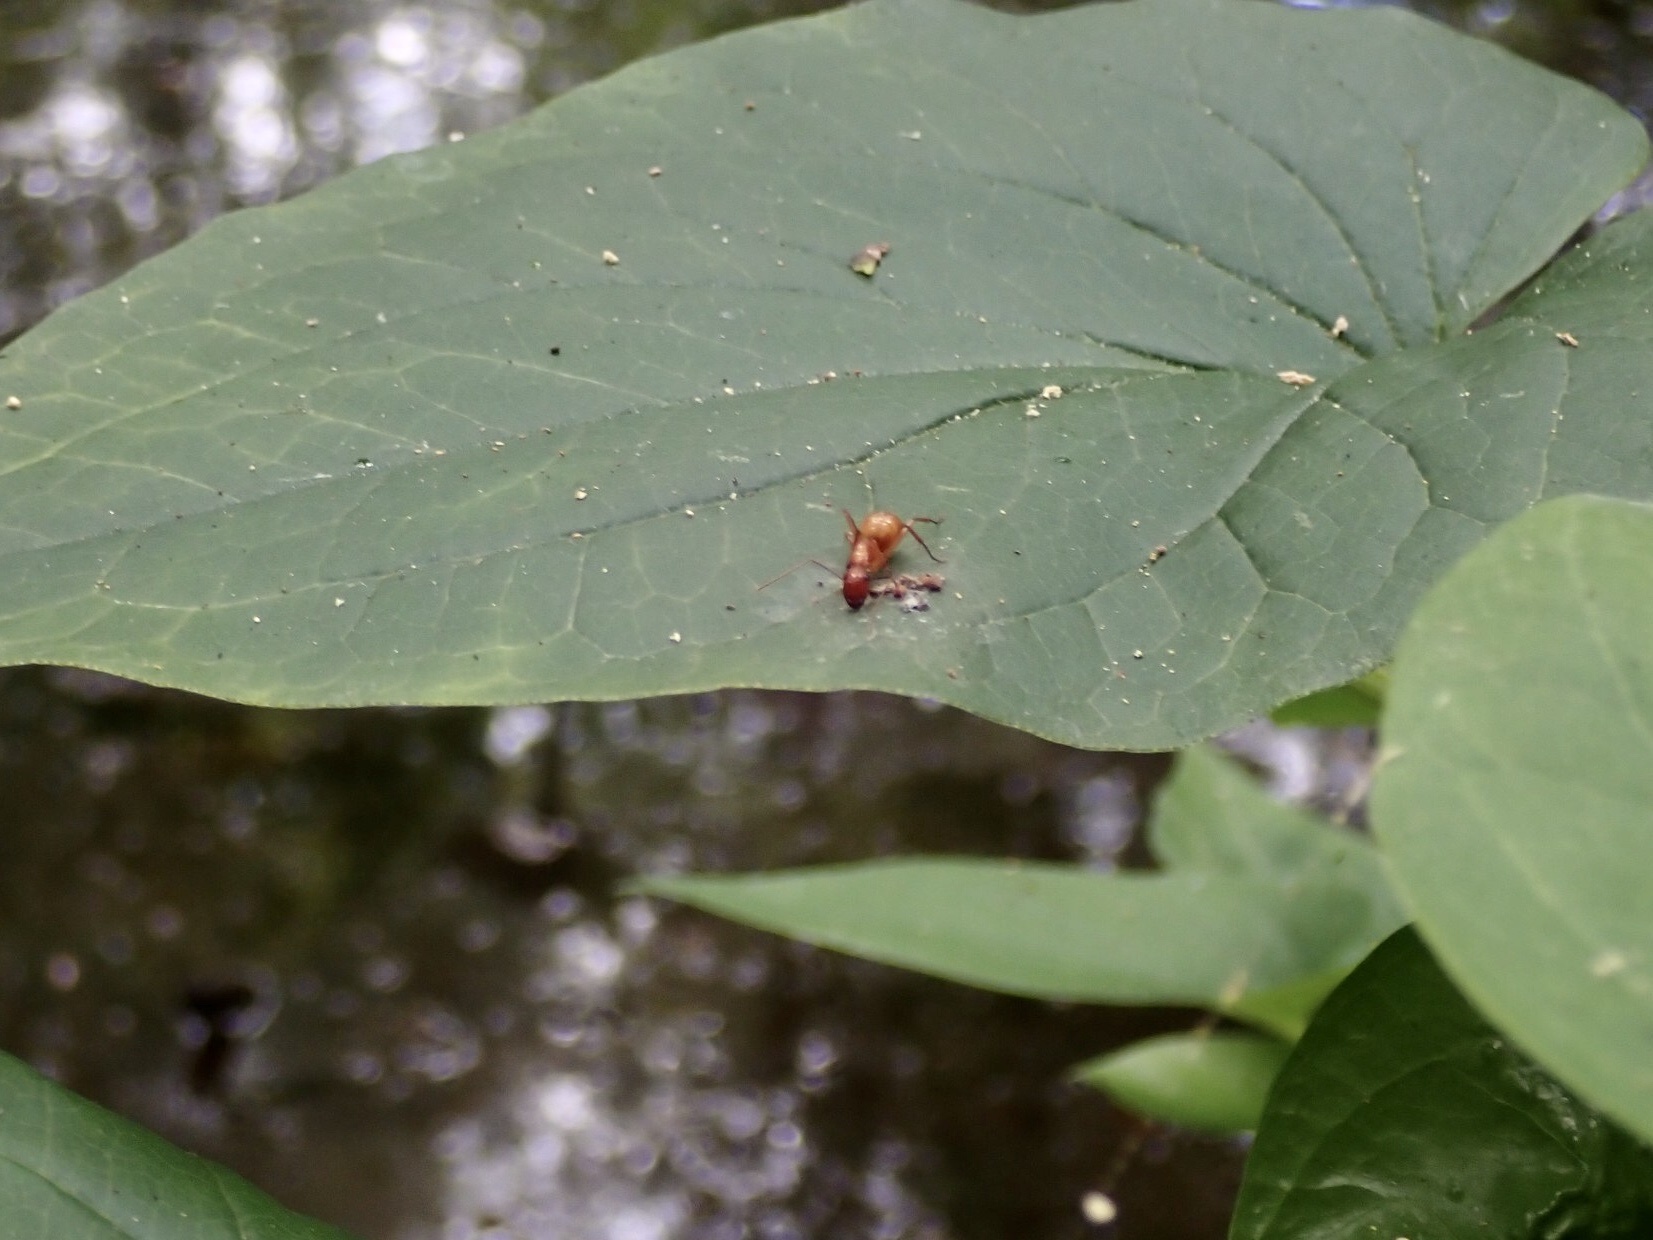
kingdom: Animalia
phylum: Arthropoda
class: Insecta
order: Hymenoptera
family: Formicidae
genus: Camponotus
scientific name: Camponotus castaneus
